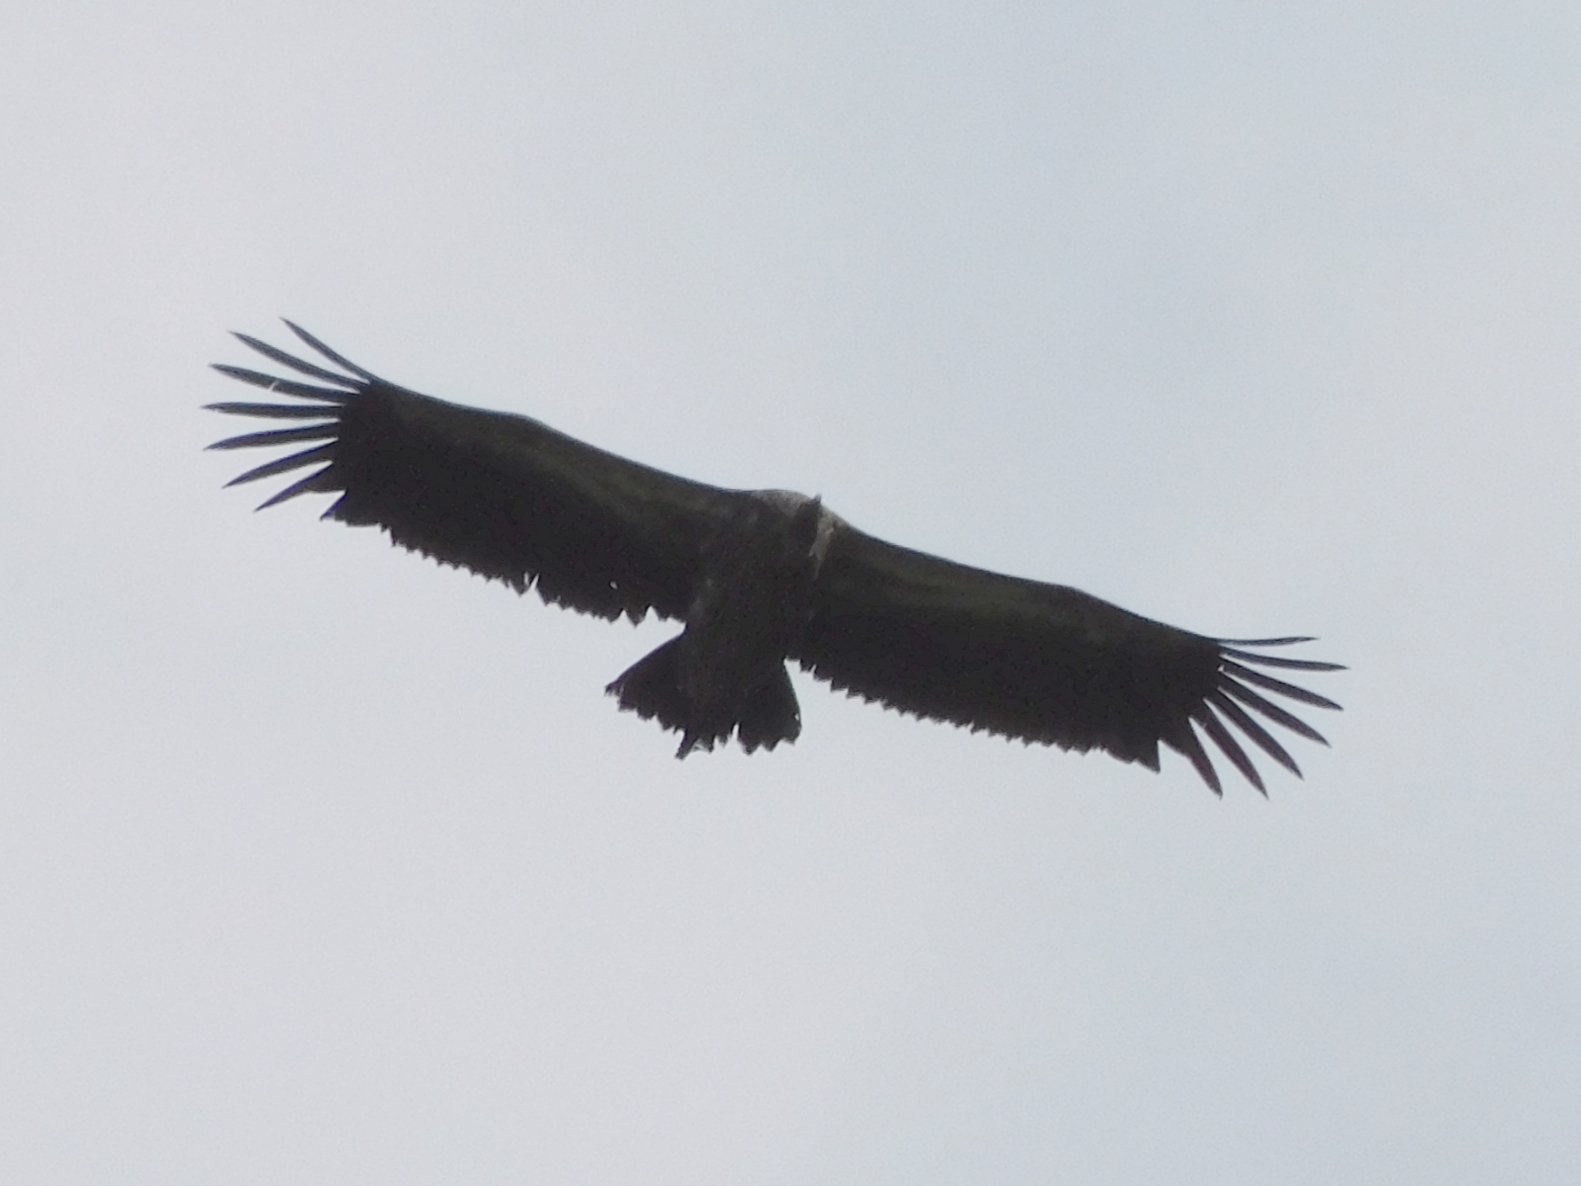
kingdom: Animalia
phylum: Chordata
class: Aves
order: Accipitriformes
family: Accipitridae
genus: Gyps
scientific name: Gyps himalayensis
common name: Himalayan griffon
